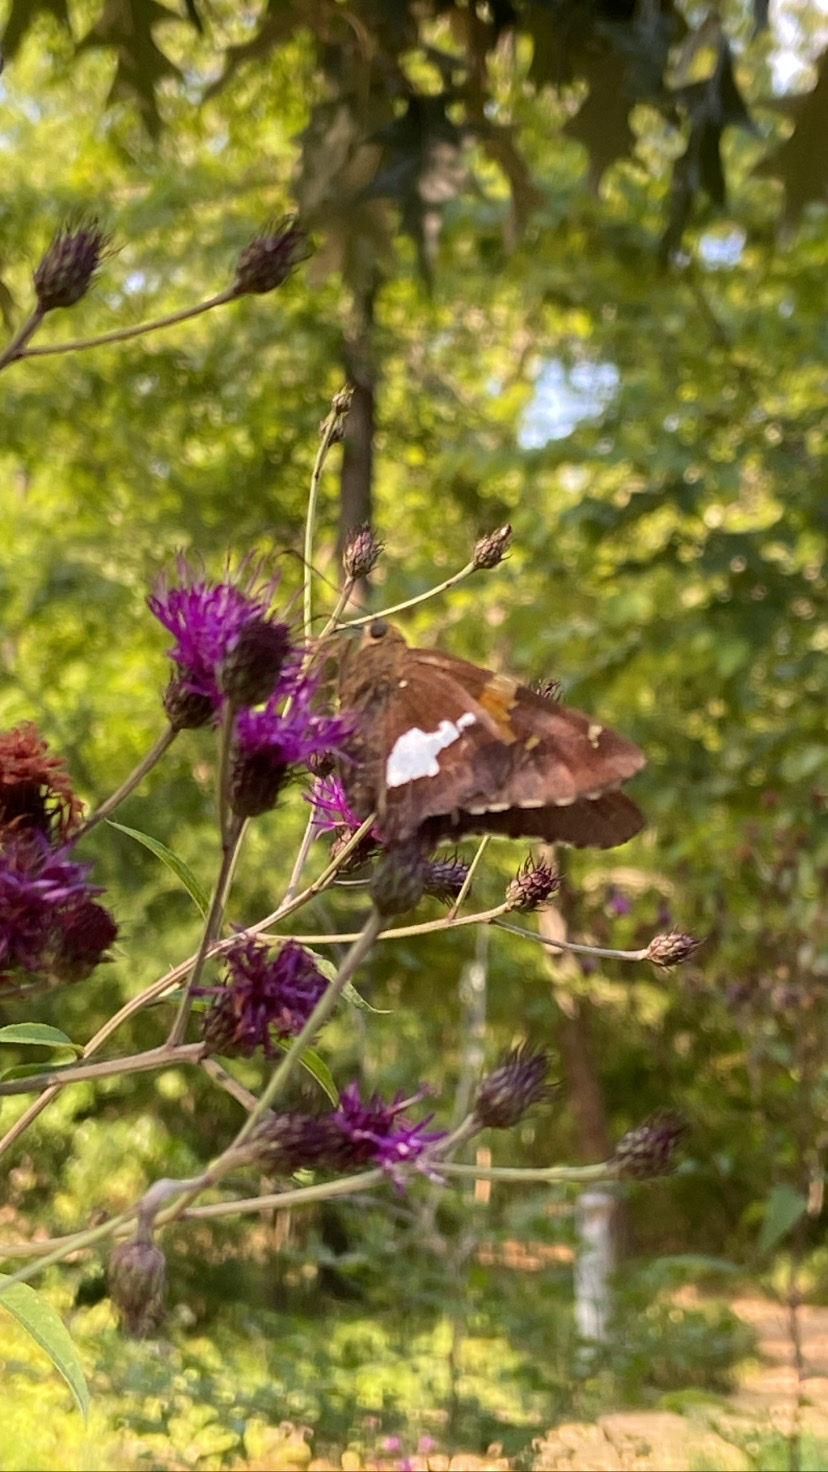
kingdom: Animalia
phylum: Arthropoda
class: Insecta
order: Lepidoptera
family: Hesperiidae
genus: Epargyreus
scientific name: Epargyreus clarus
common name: Silver-spotted skipper
